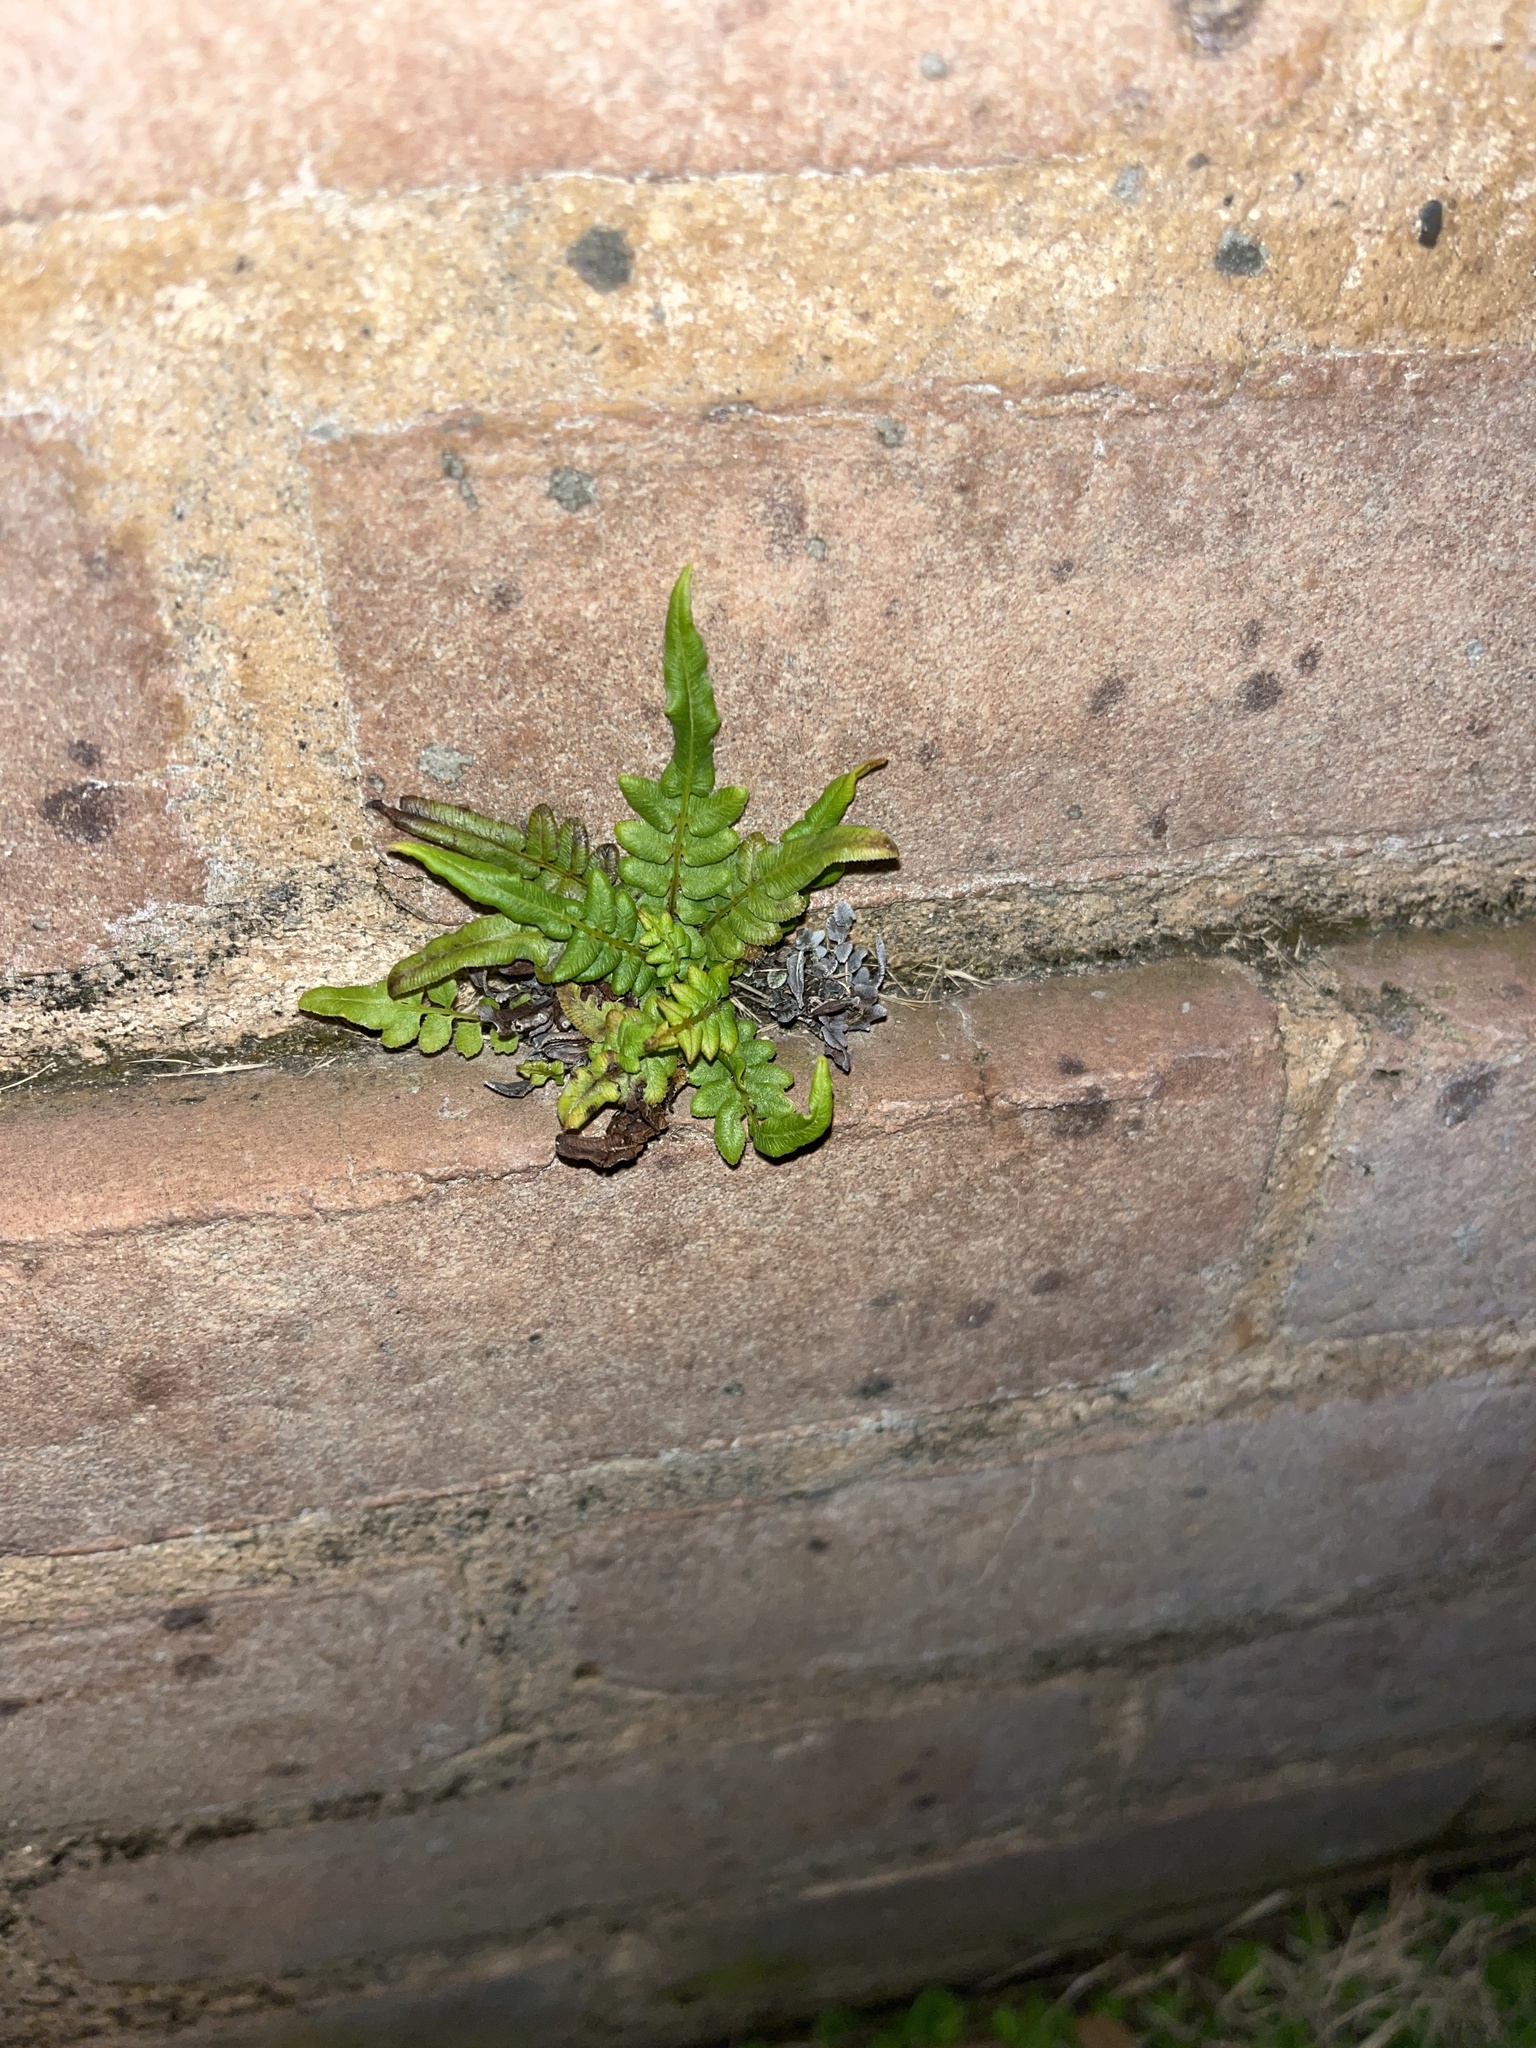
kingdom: Plantae
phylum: Tracheophyta
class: Polypodiopsida
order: Polypodiales
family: Pteridaceae
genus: Pteris
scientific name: Pteris vittata
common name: Ladder brake
